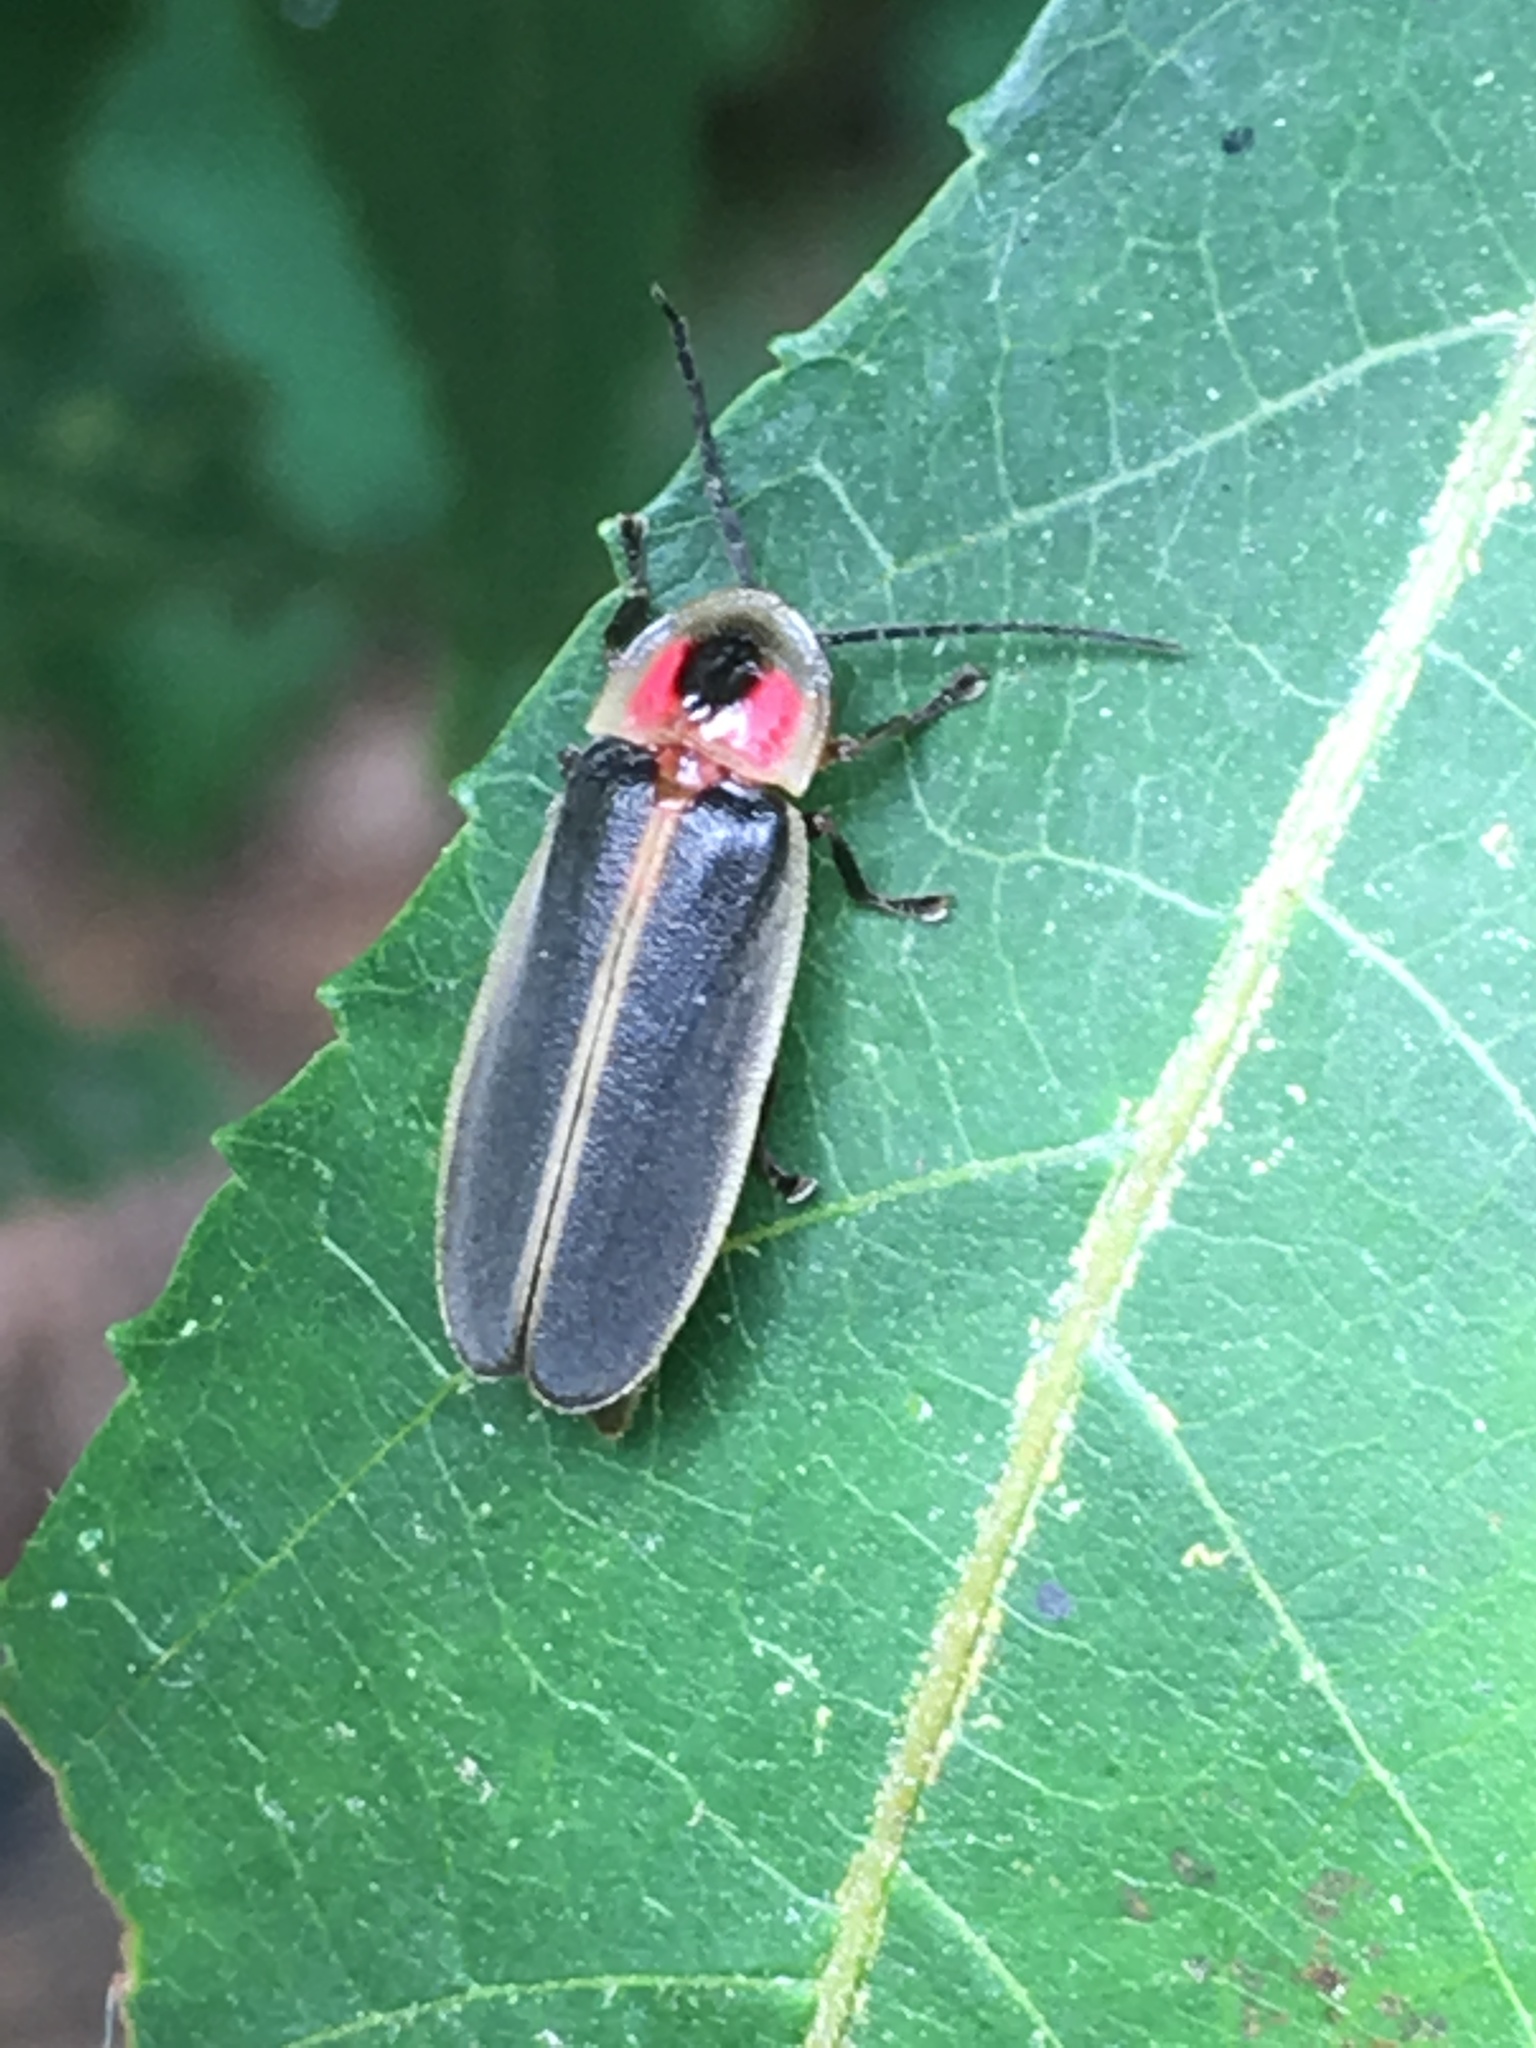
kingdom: Animalia
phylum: Arthropoda
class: Insecta
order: Coleoptera
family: Lampyridae
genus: Photinus
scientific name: Photinus pyralis
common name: Big dipper firefly
